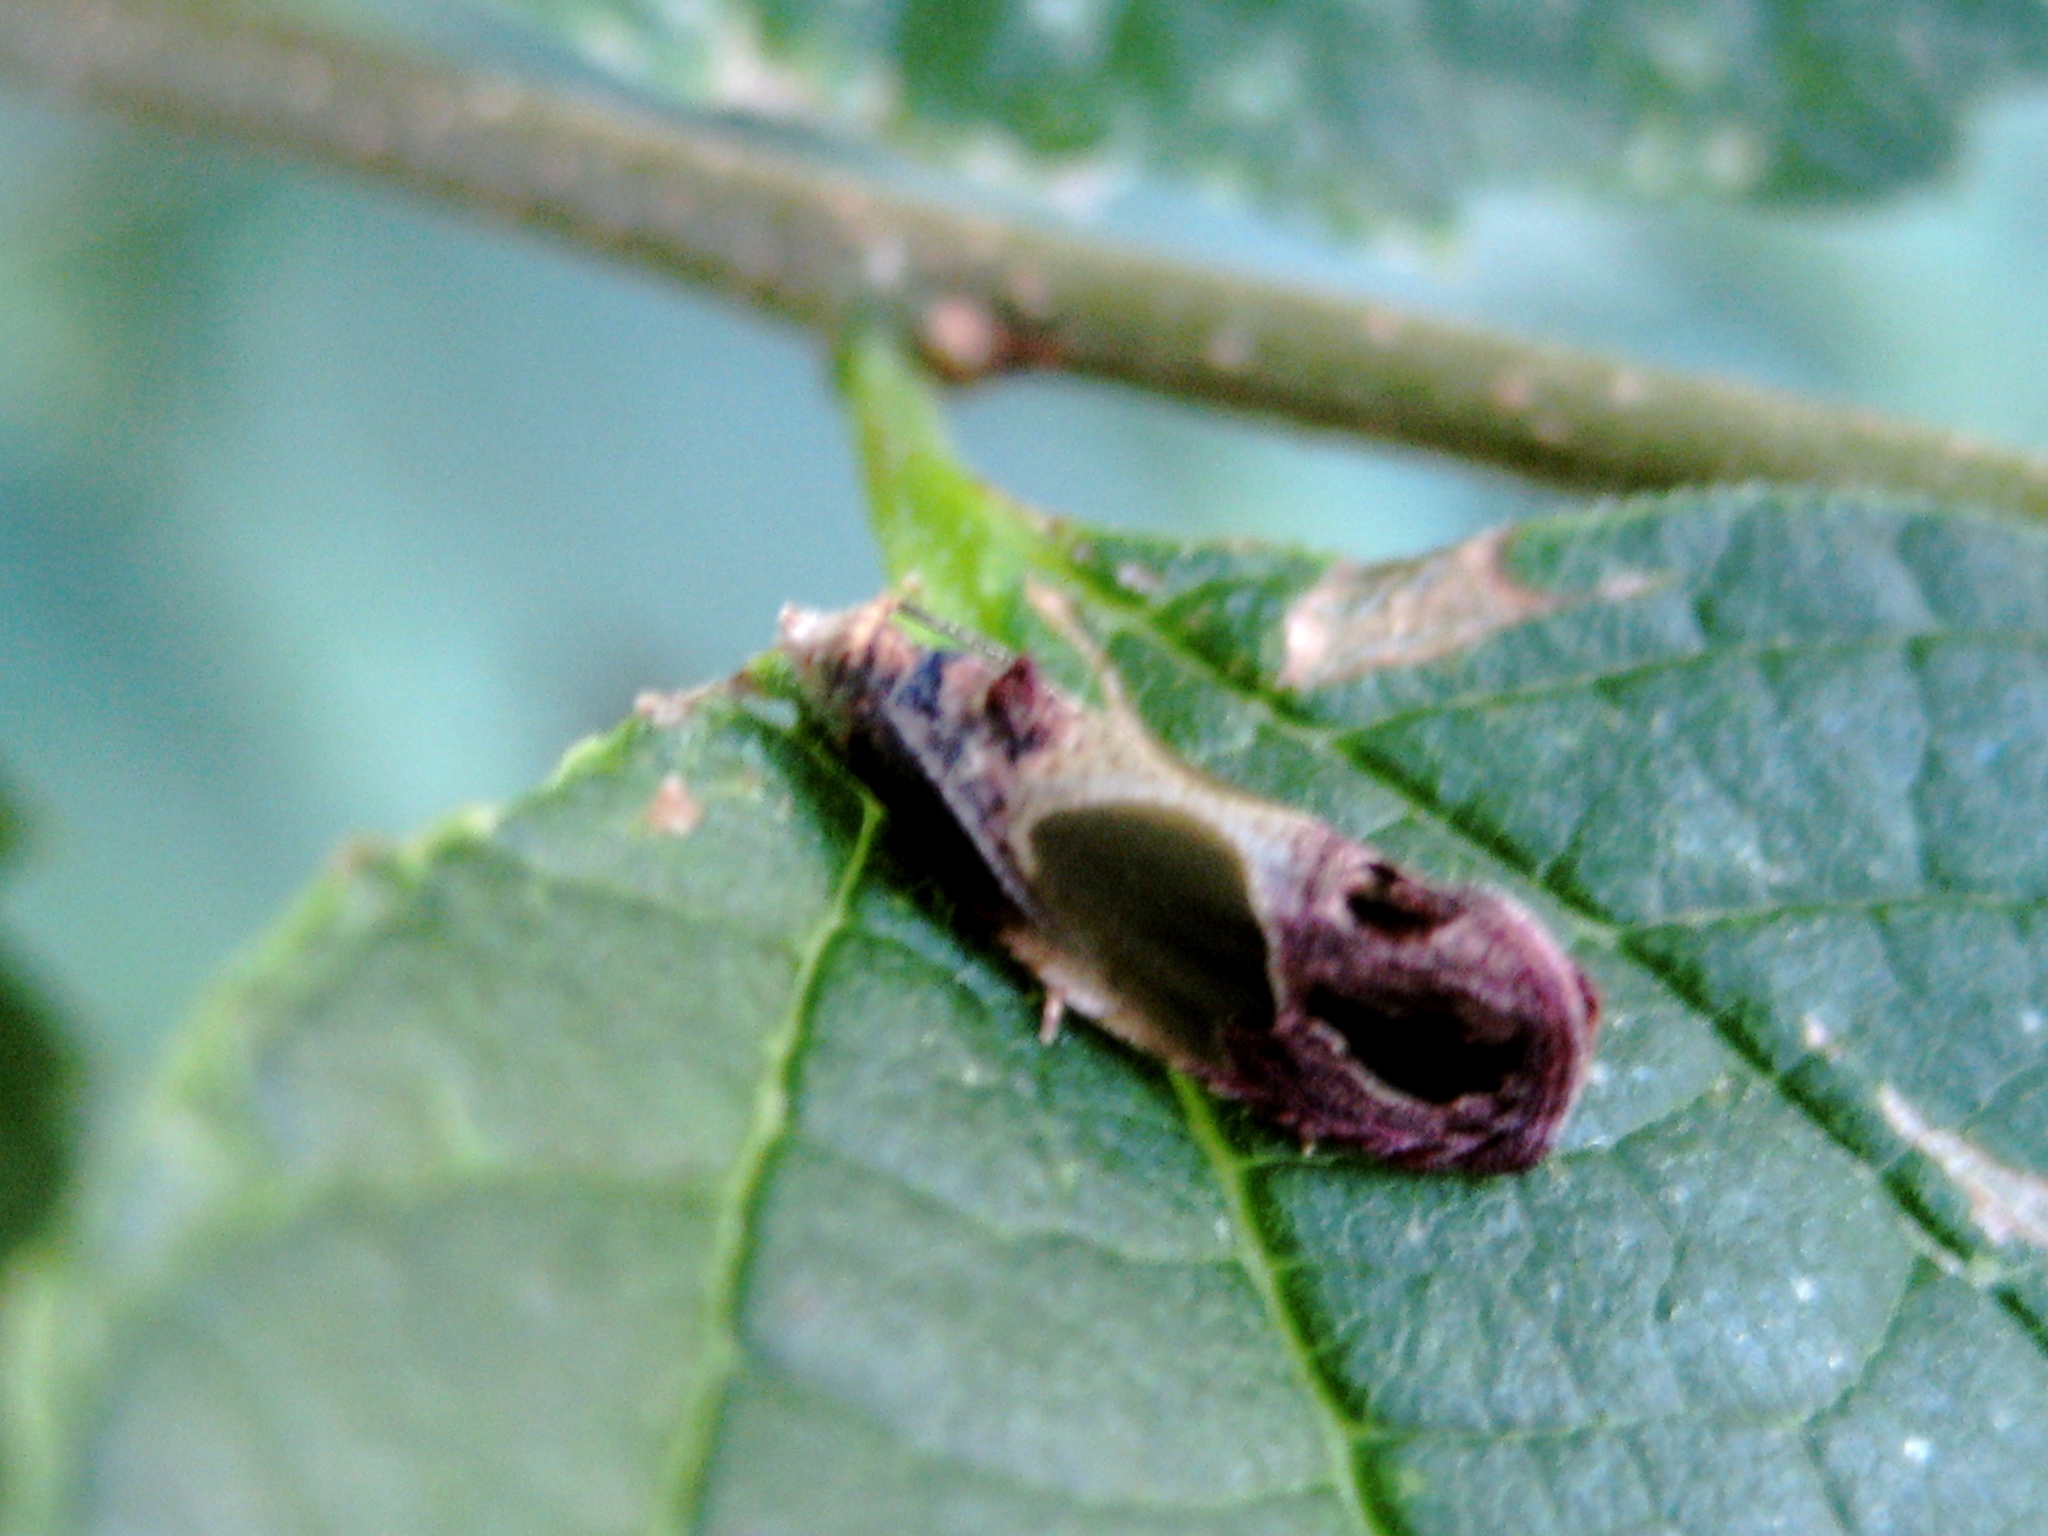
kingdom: Animalia
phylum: Arthropoda
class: Insecta
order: Lepidoptera
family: Tortricidae
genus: Eumarozia
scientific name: Eumarozia malachitana
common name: Sculptured moth
